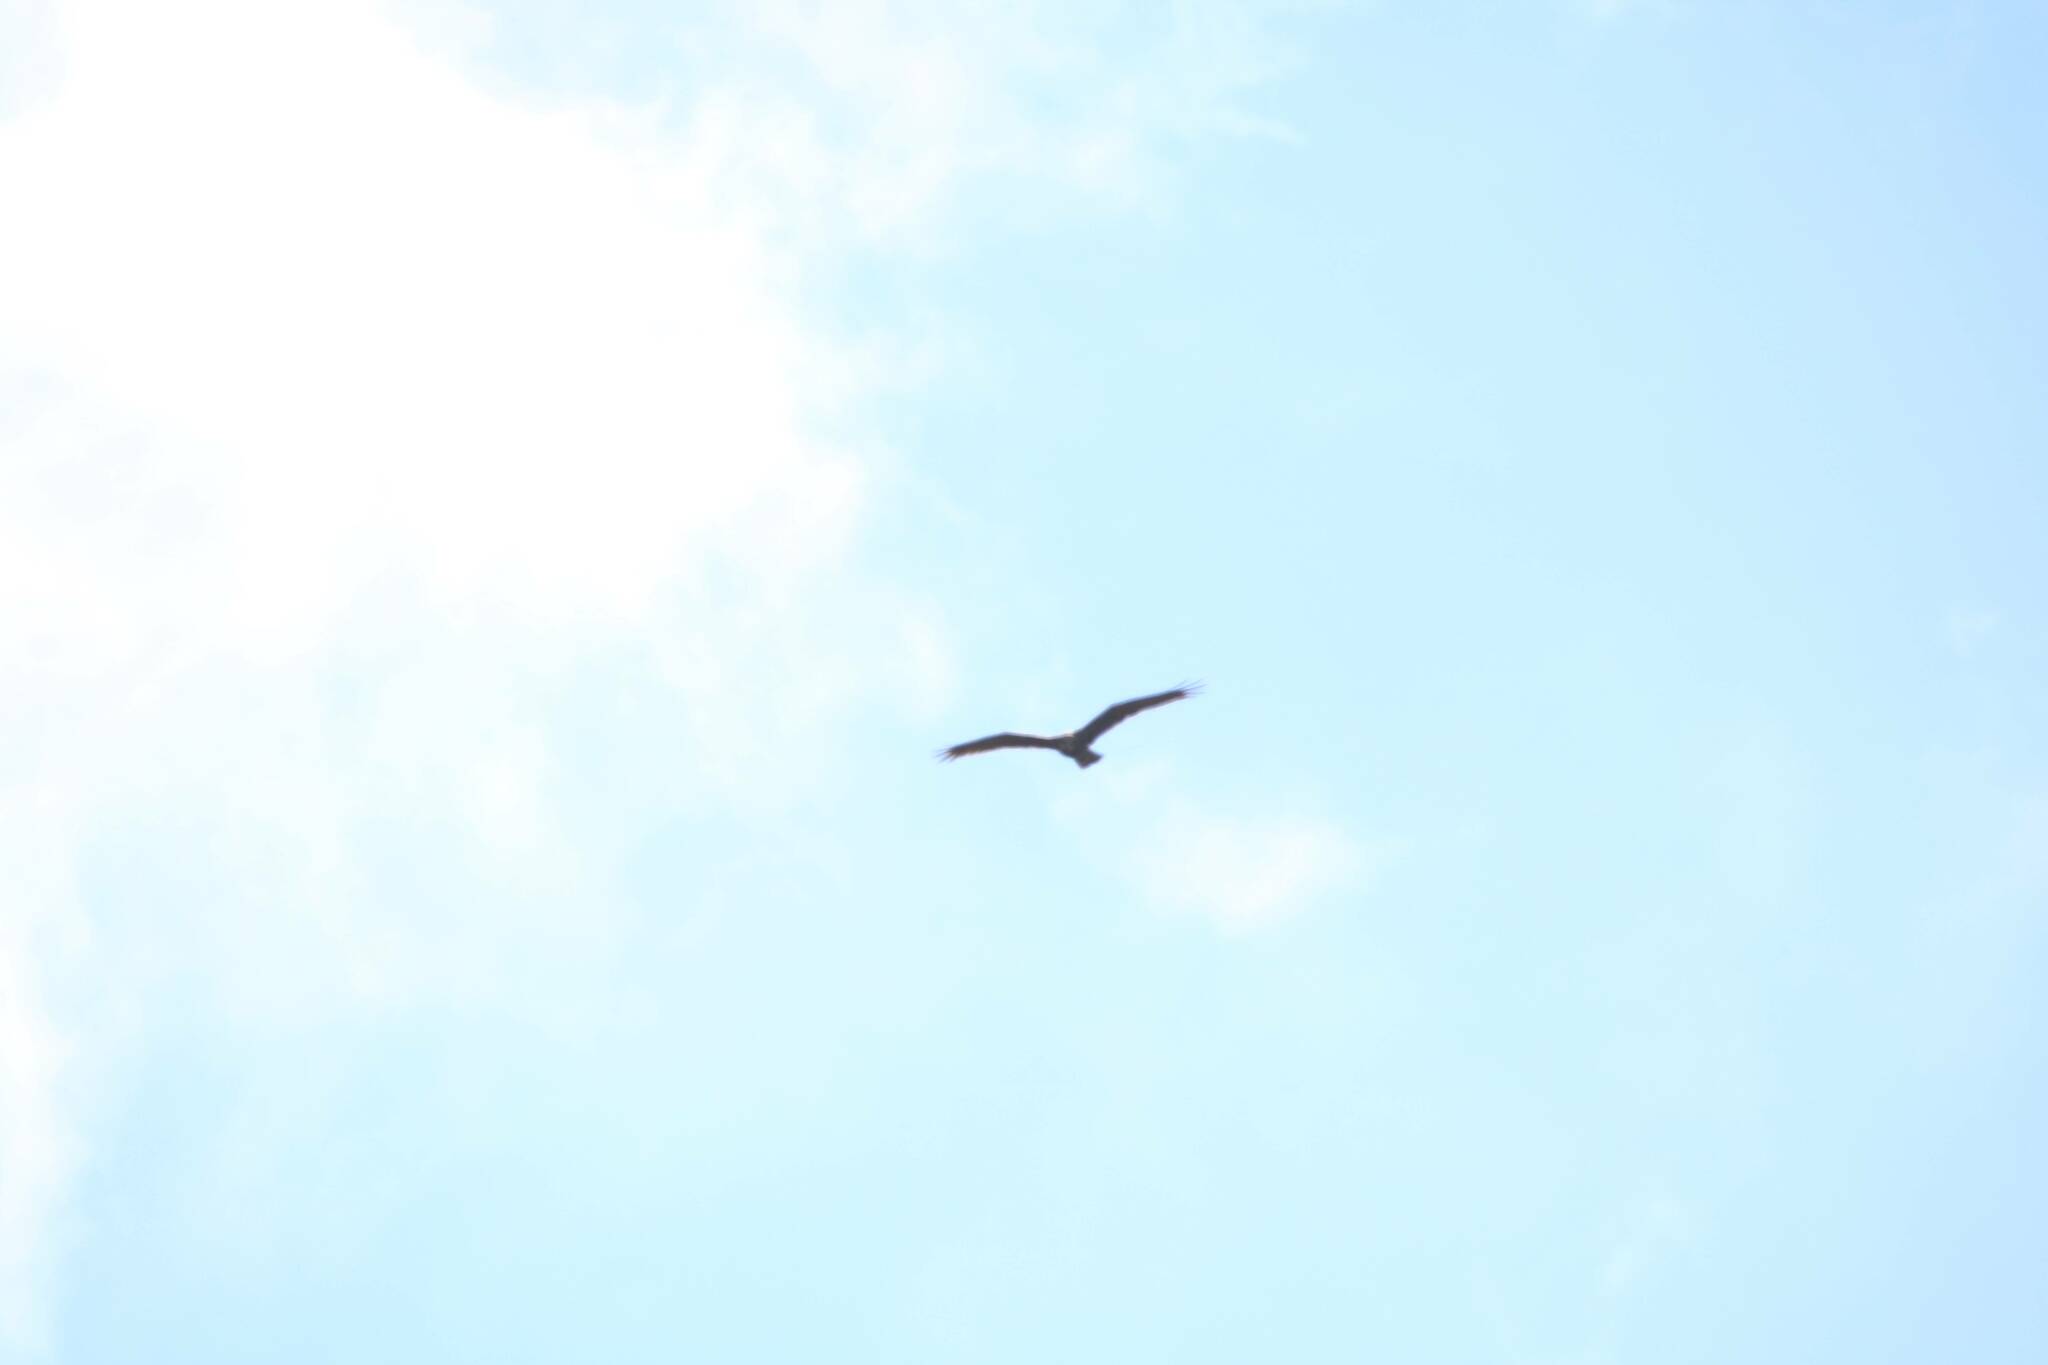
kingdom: Animalia
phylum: Chordata
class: Aves
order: Accipitriformes
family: Accipitridae
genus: Circus
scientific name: Circus aeruginosus
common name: Western marsh harrier
